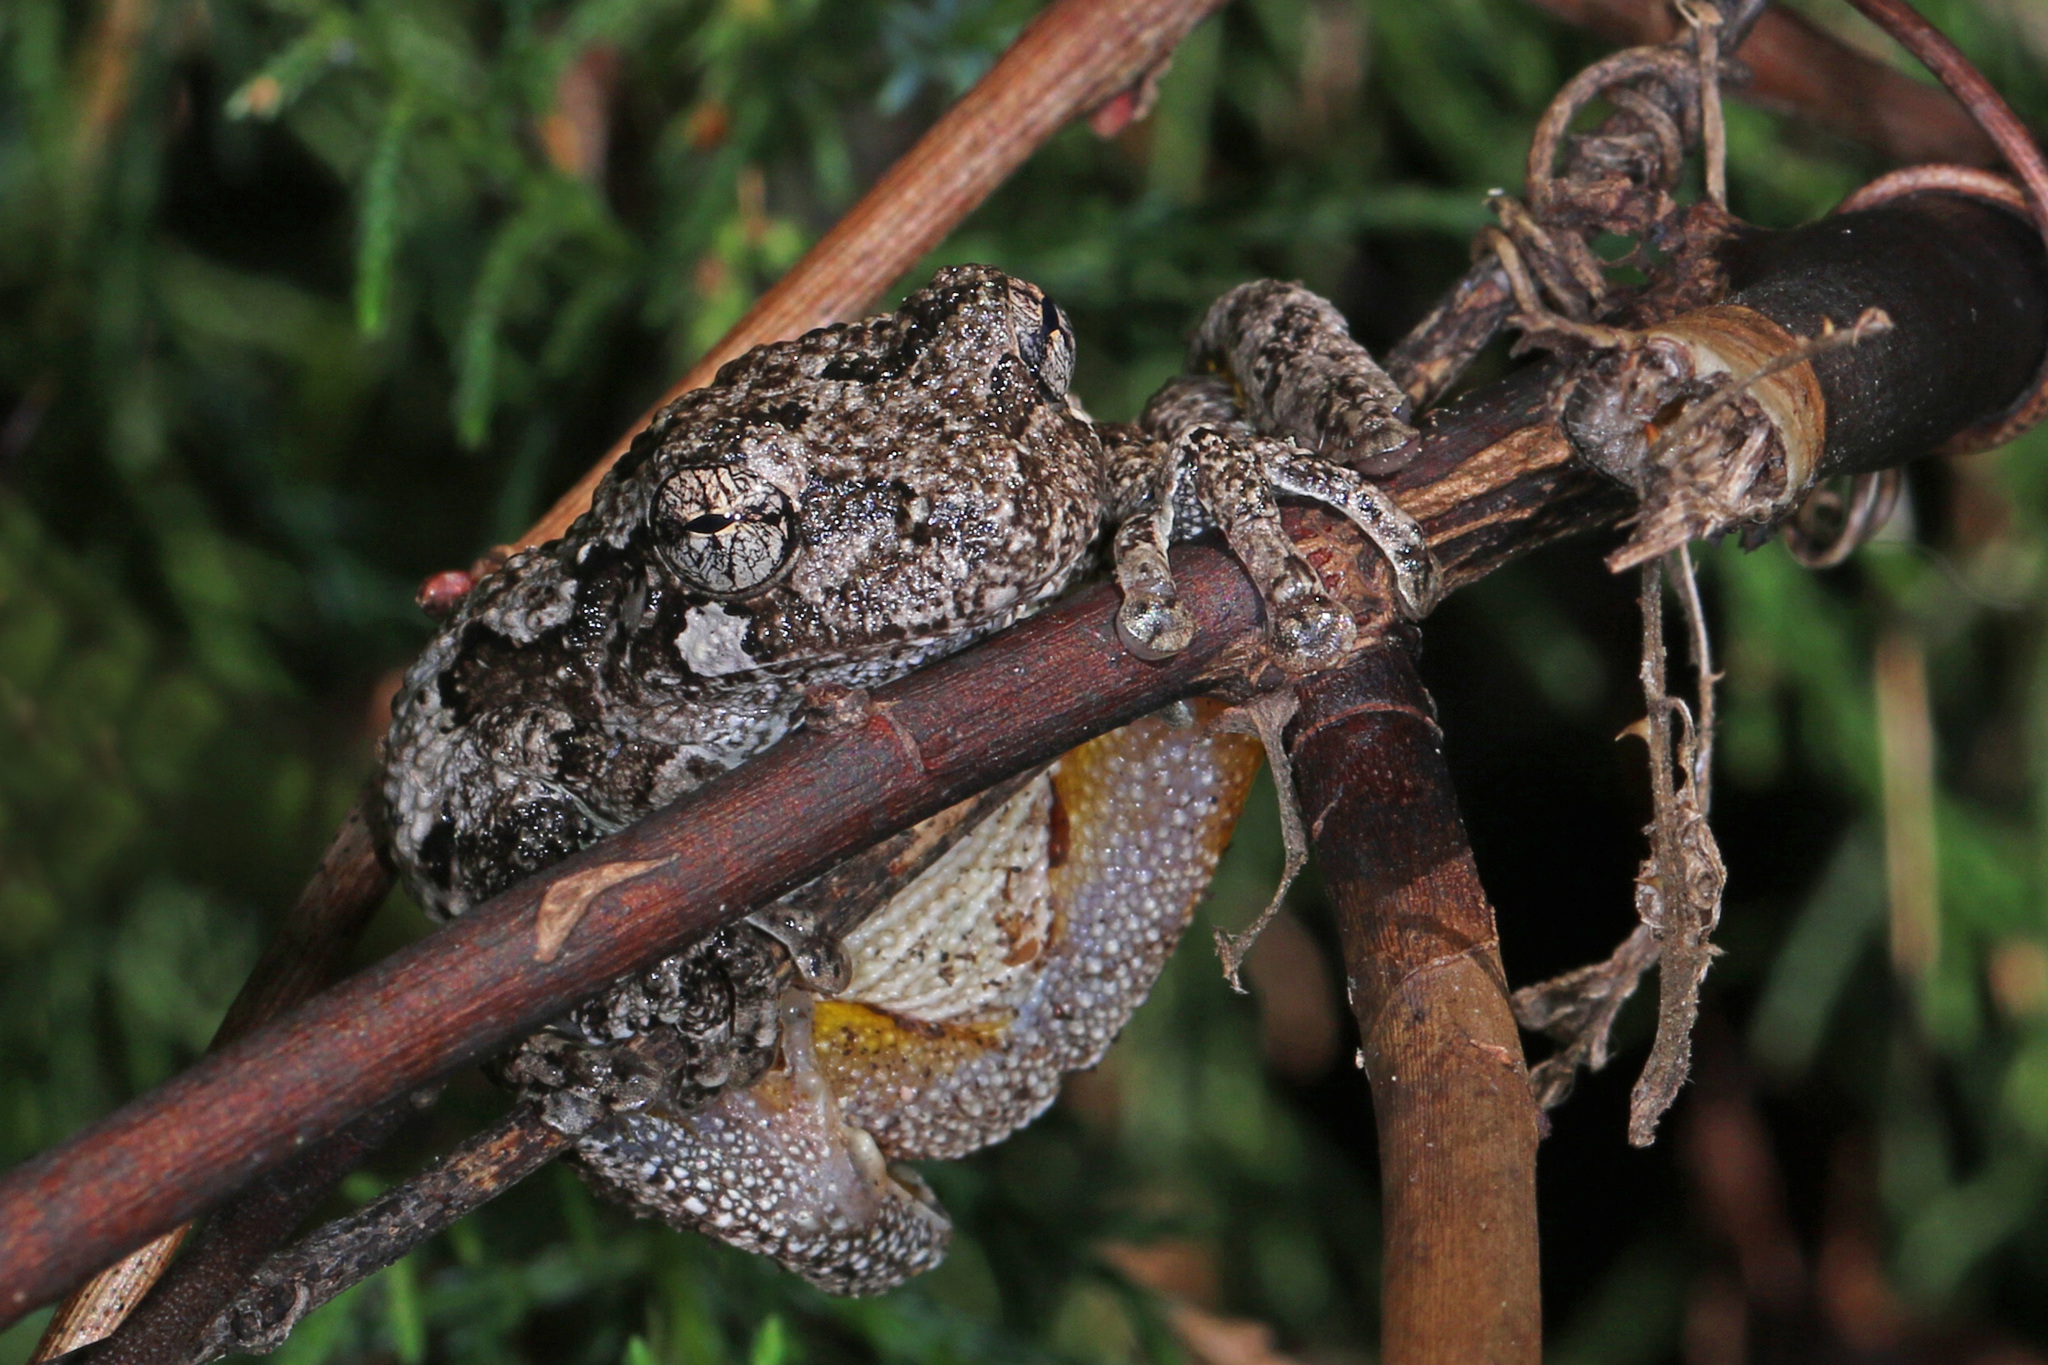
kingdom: Animalia
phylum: Chordata
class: Amphibia
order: Anura
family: Hylidae
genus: Dryophytes
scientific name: Dryophytes chrysoscelis
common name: Cope's gray treefrog
